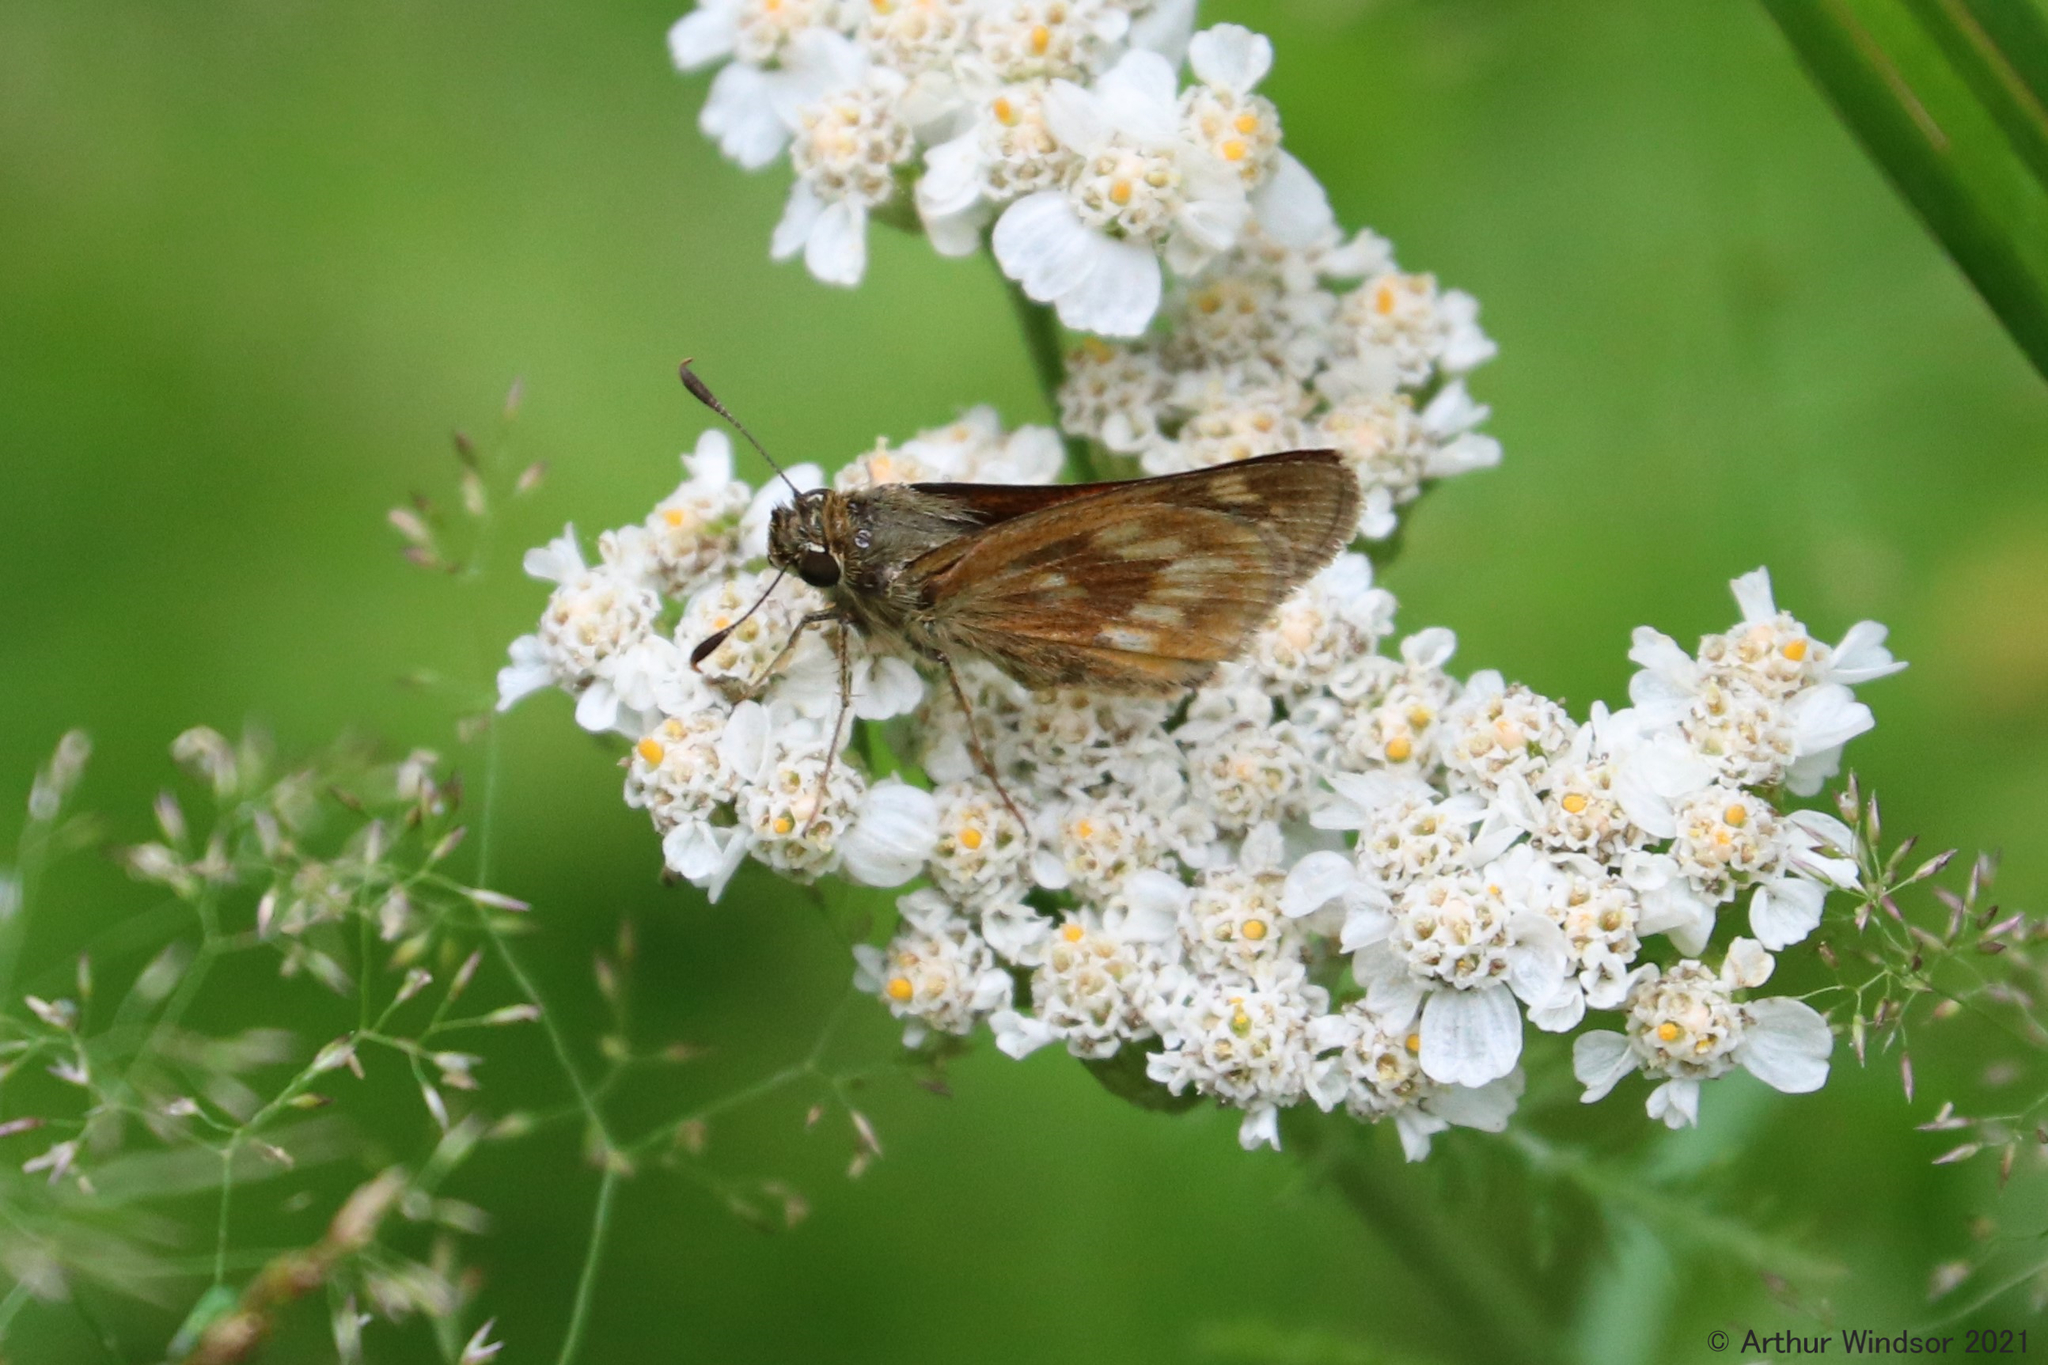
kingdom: Animalia
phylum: Arthropoda
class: Insecta
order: Lepidoptera
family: Hesperiidae
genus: Polites
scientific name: Polites mystic
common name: Long dash
